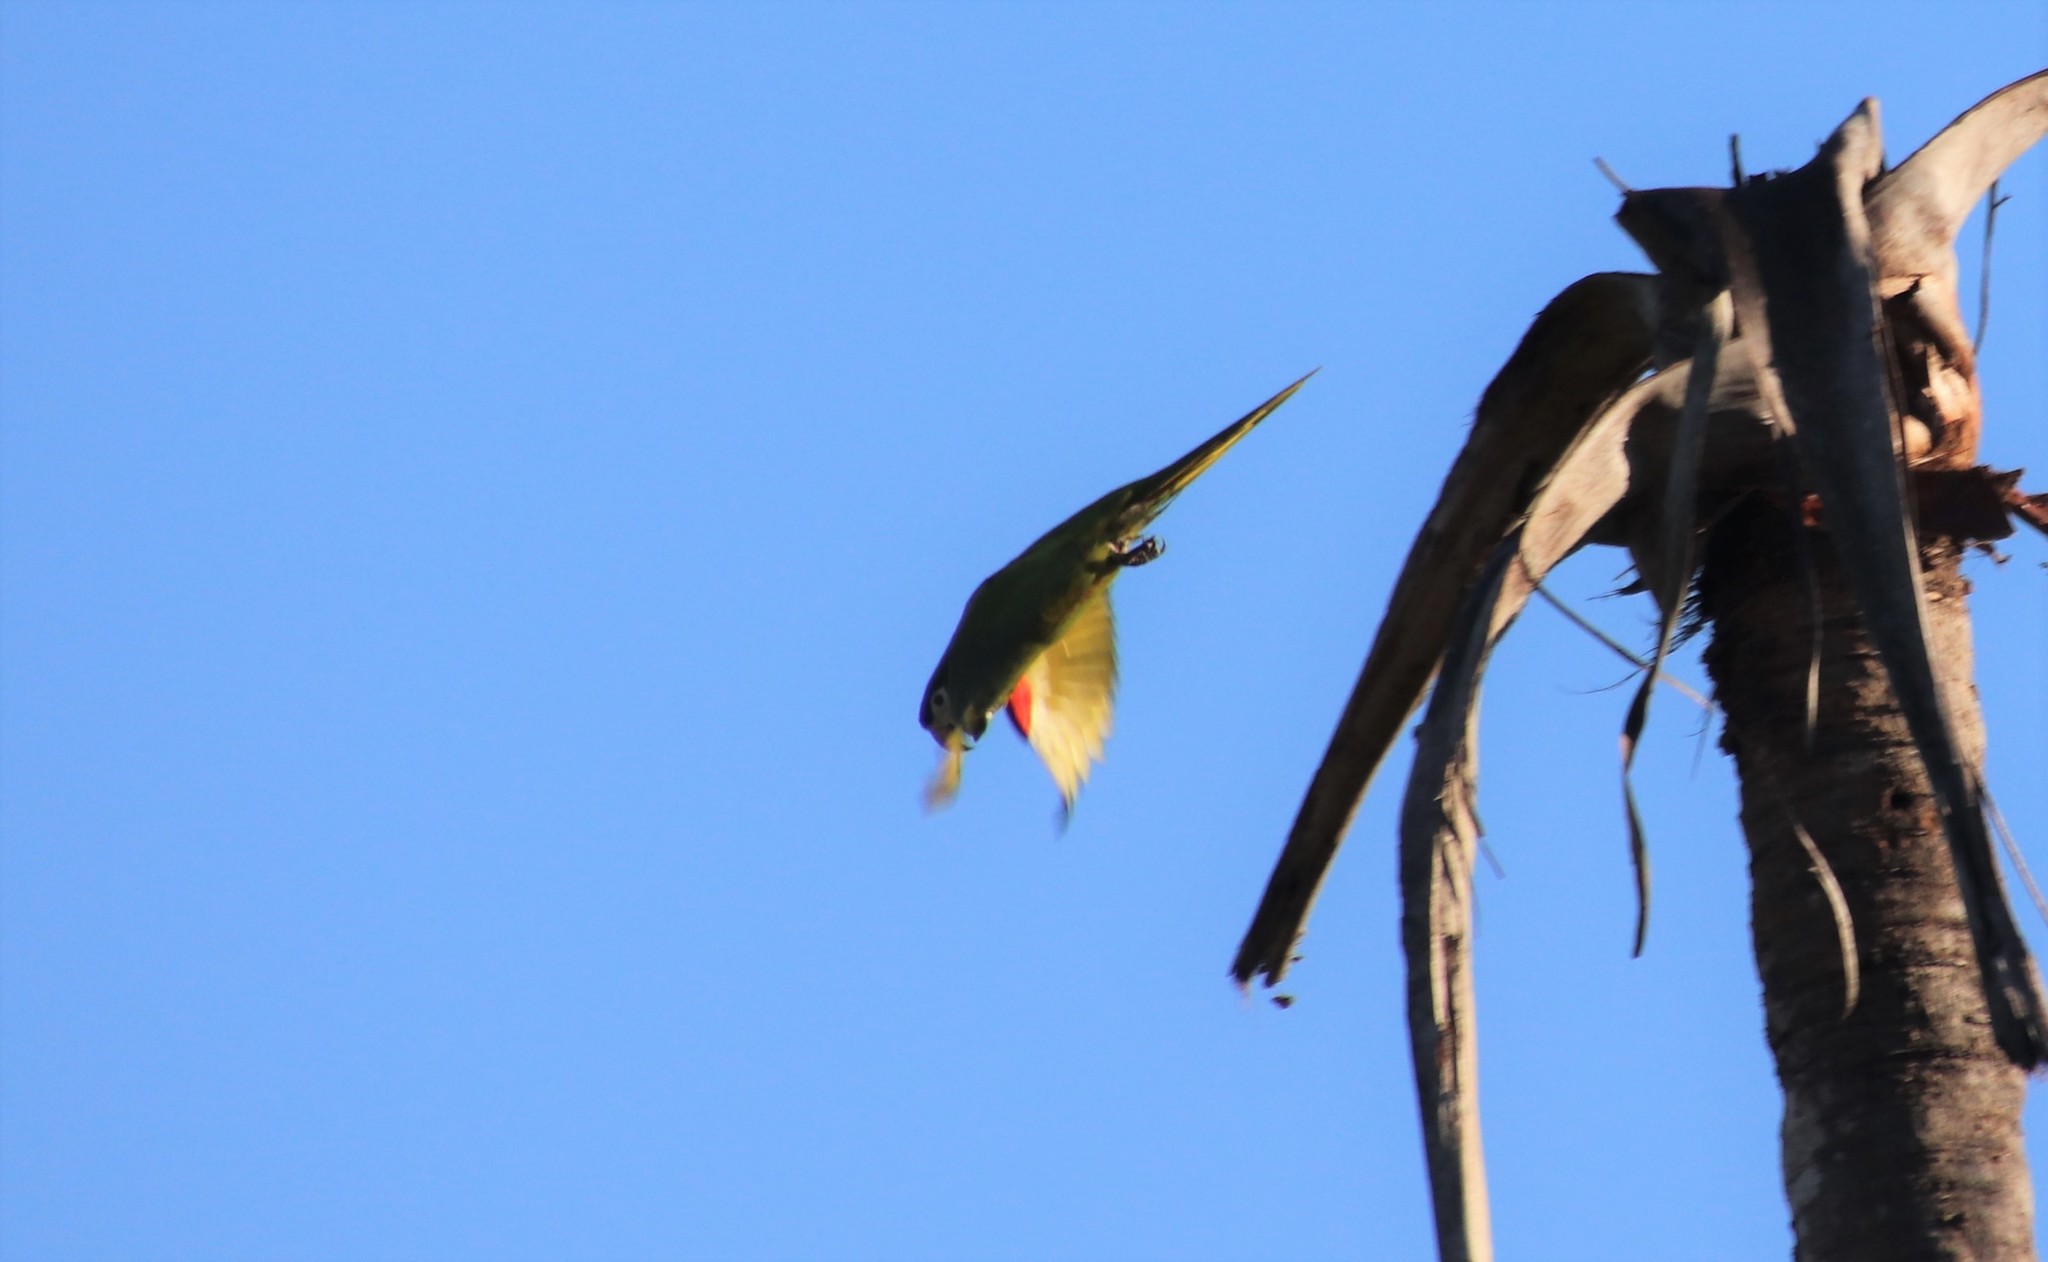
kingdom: Animalia
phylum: Chordata
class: Aves
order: Psittaciformes
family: Psittacidae
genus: Diopsittaca
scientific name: Diopsittaca nobilis
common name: Red-shouldered macaw
